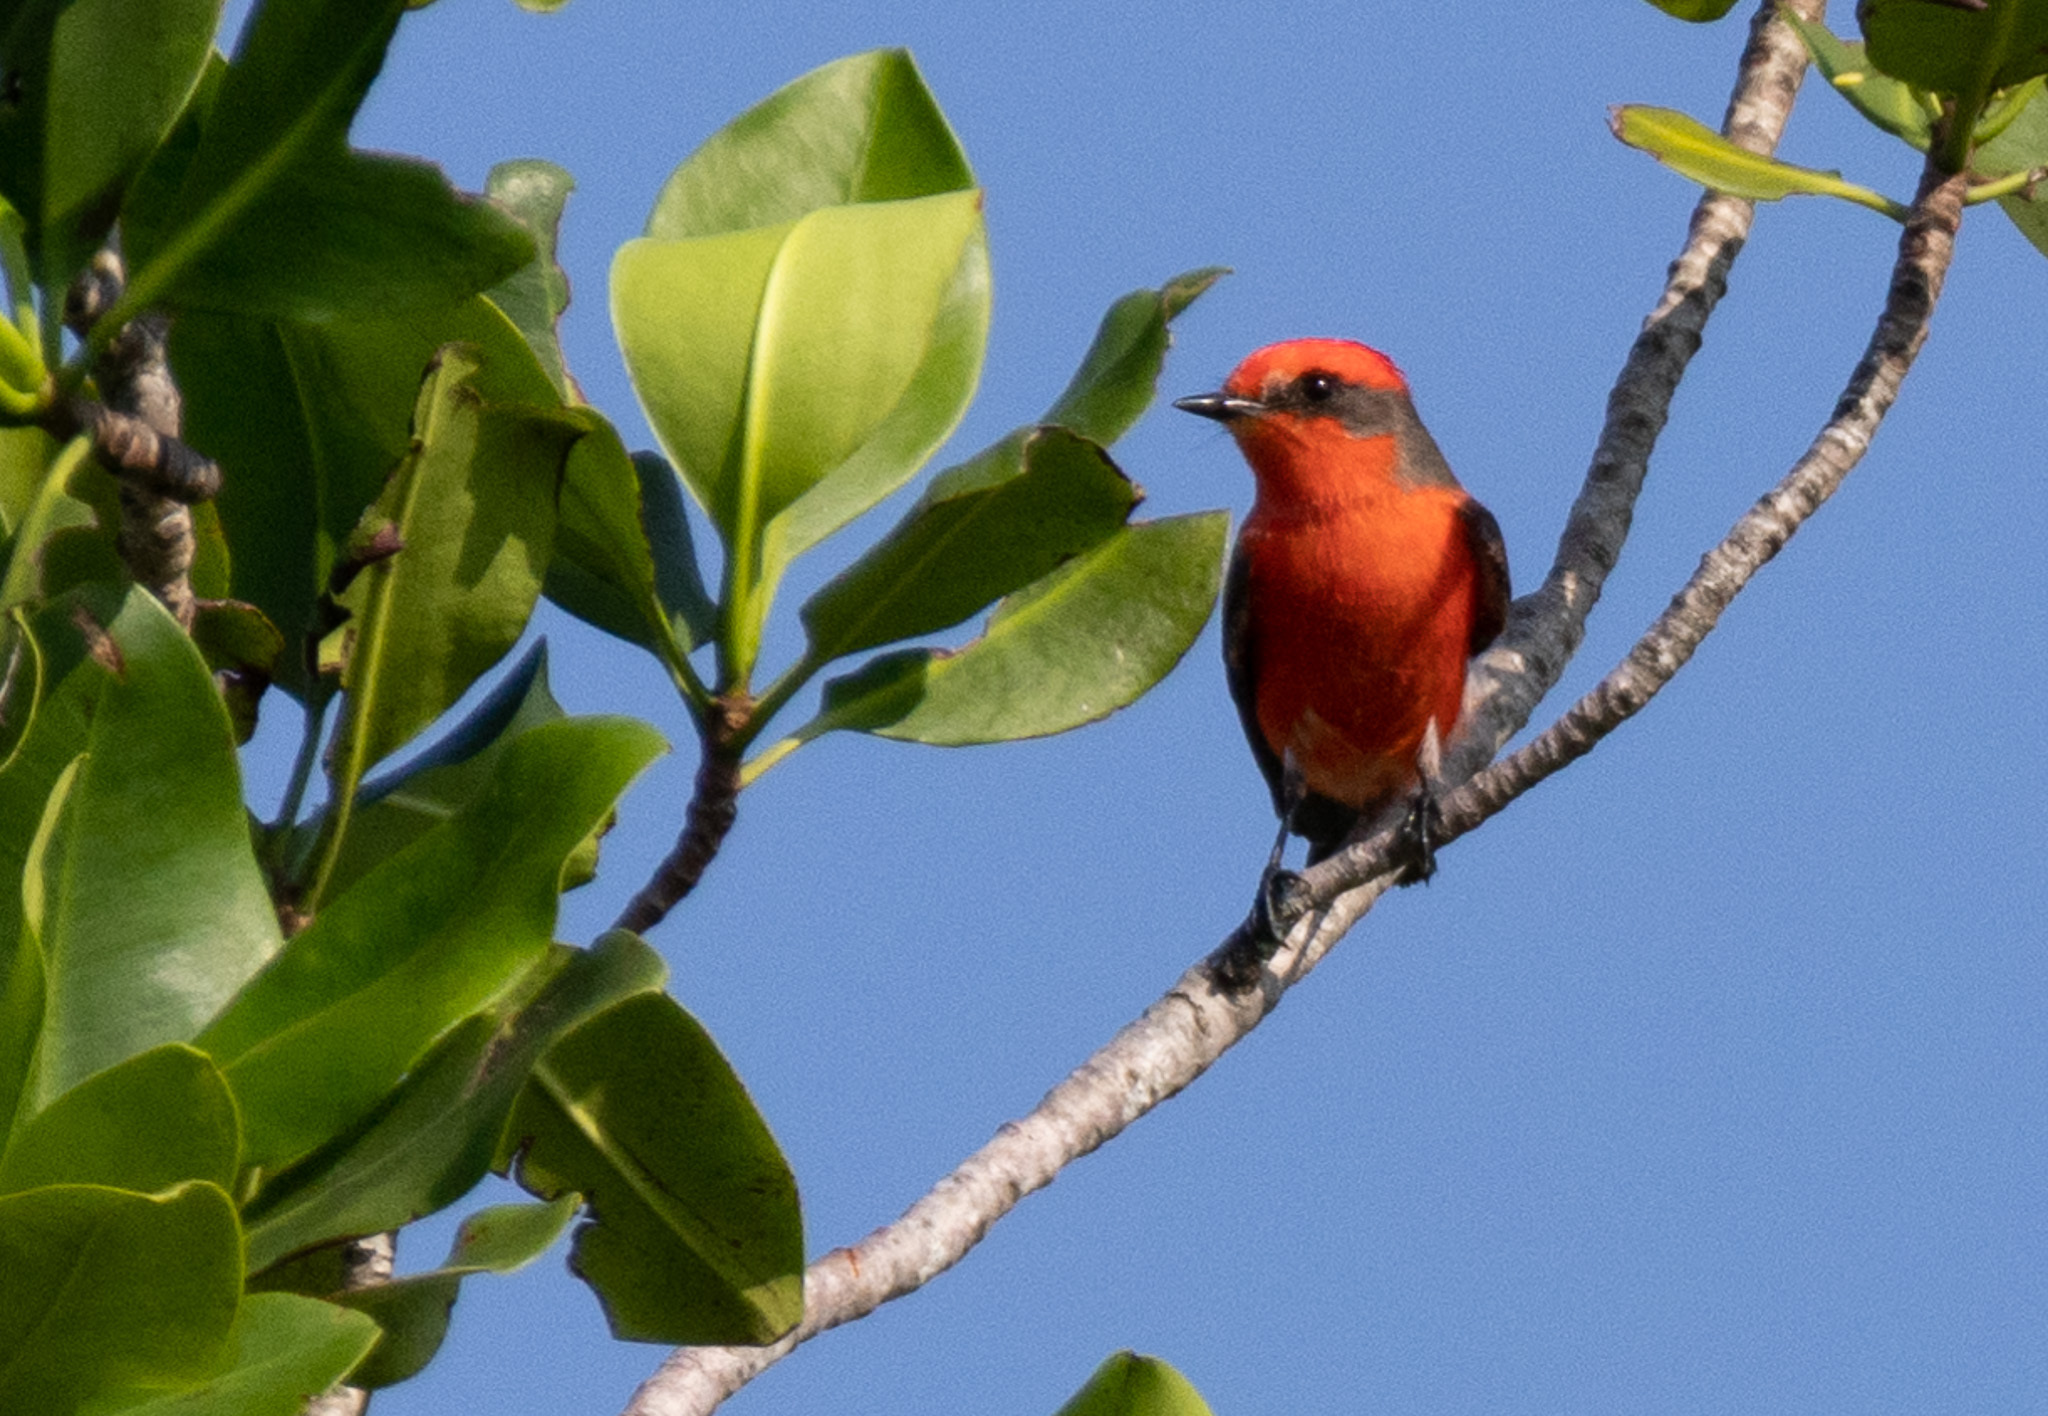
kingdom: Animalia
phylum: Chordata
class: Aves
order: Passeriformes
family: Tyrannidae
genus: Pyrocephalus
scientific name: Pyrocephalus rubinus
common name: Vermilion flycatcher
